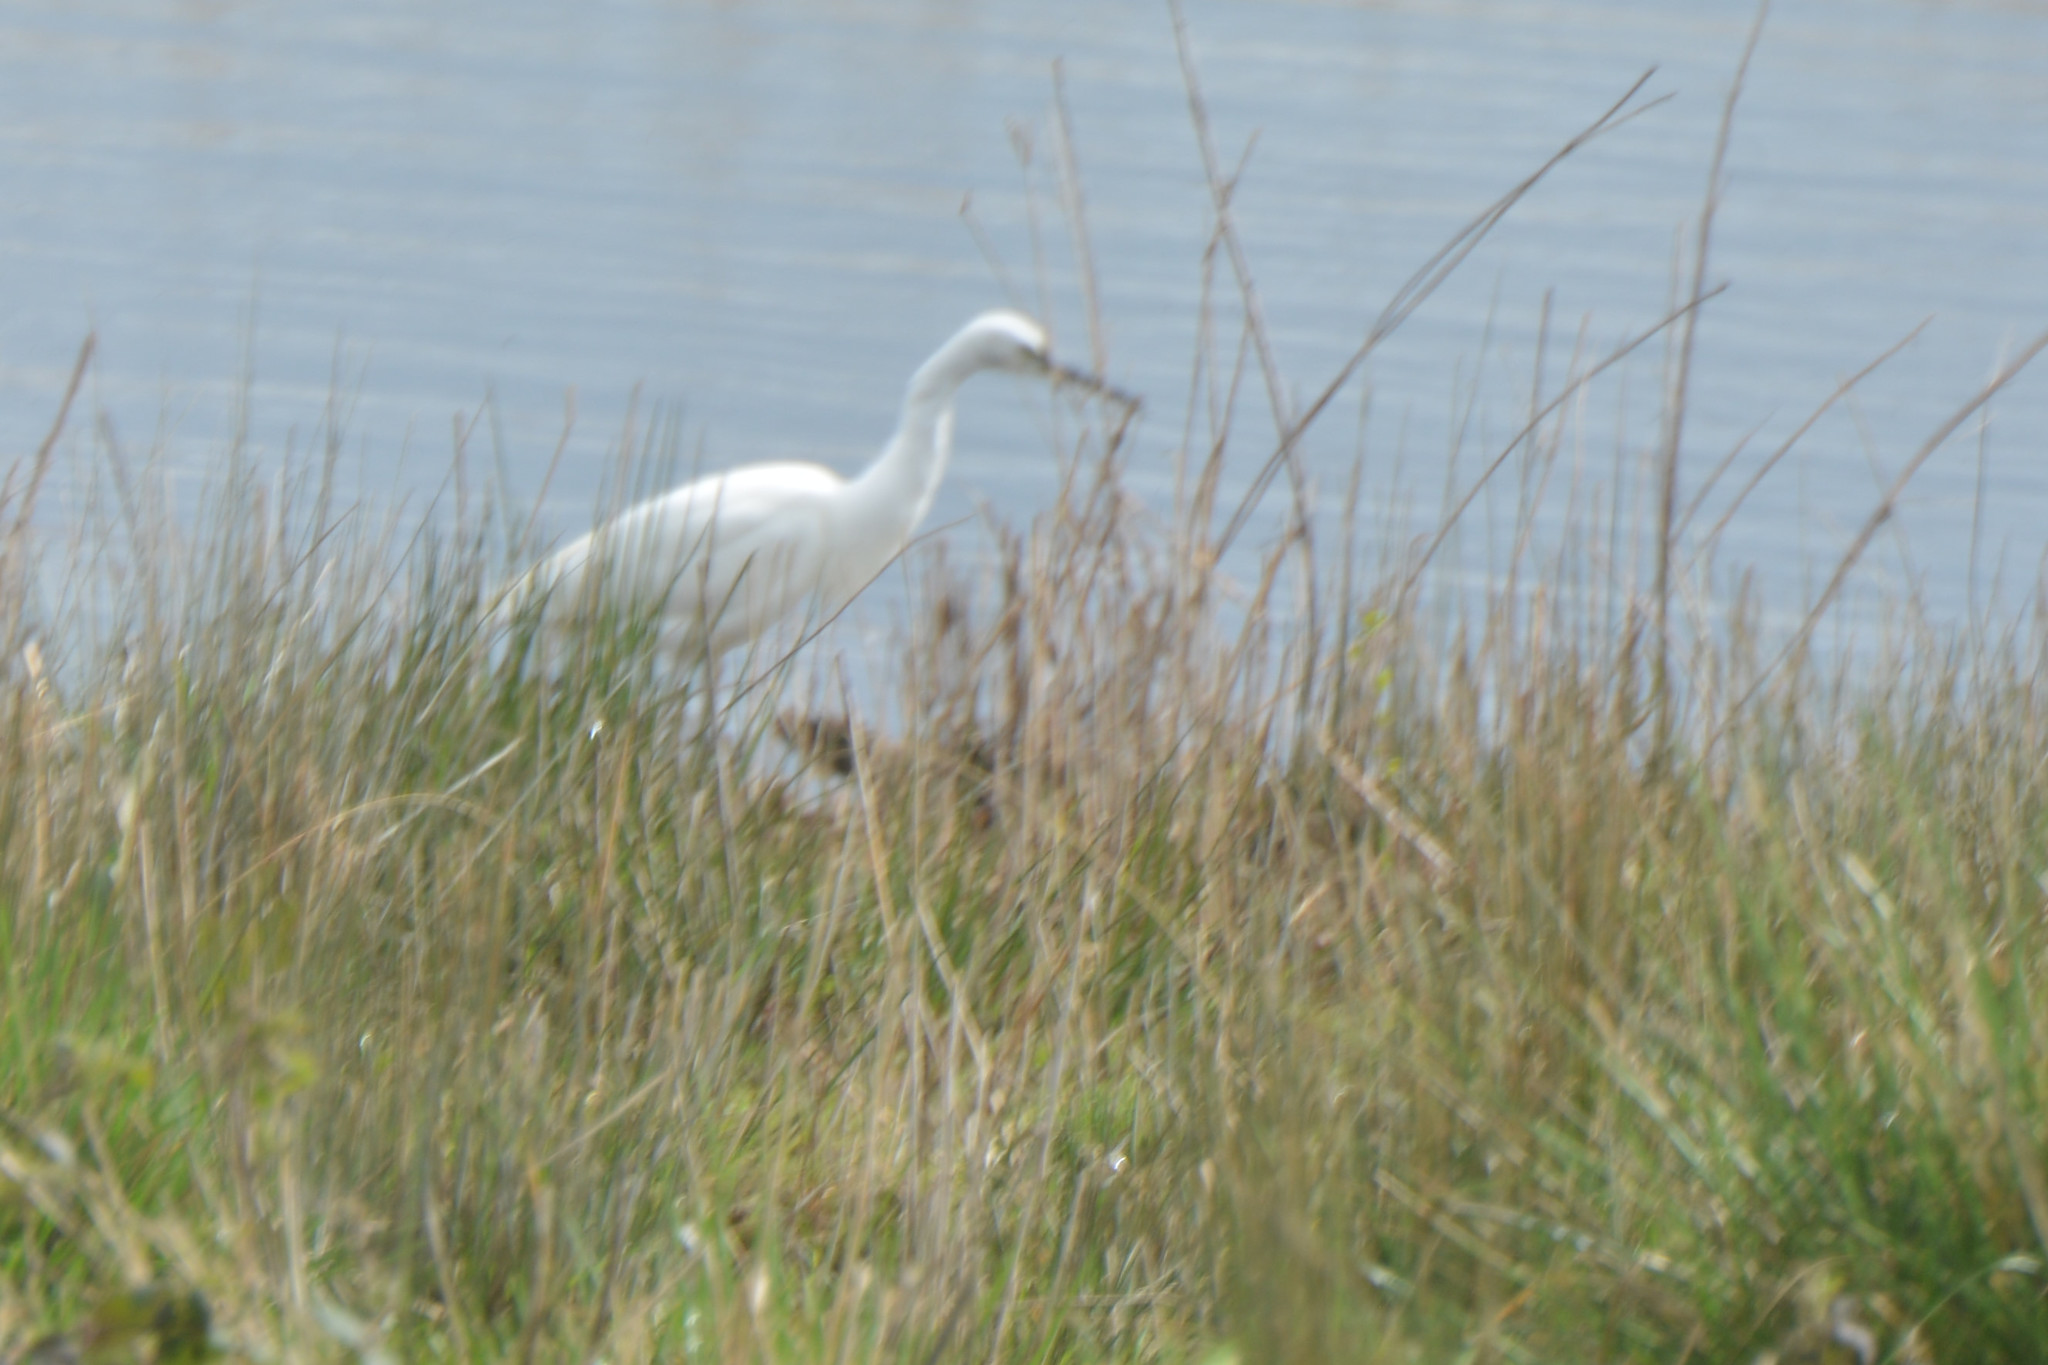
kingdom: Animalia
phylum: Chordata
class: Aves
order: Pelecaniformes
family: Ardeidae
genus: Egretta
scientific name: Egretta garzetta
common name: Little egret
